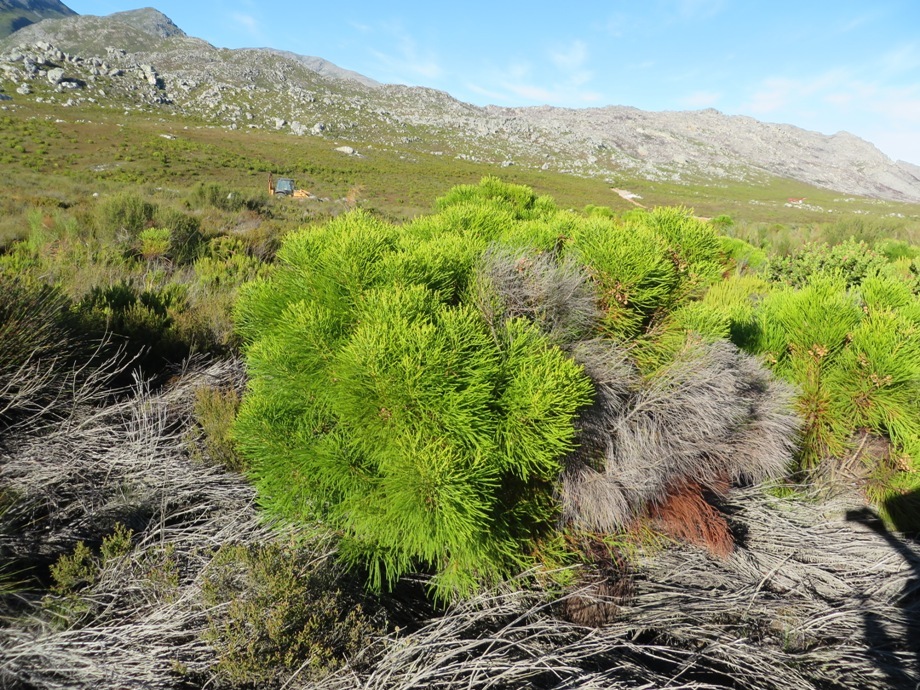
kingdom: Plantae
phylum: Tracheophyta
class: Magnoliopsida
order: Bruniales
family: Bruniaceae
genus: Berzelia
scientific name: Berzelia lanuginosa
